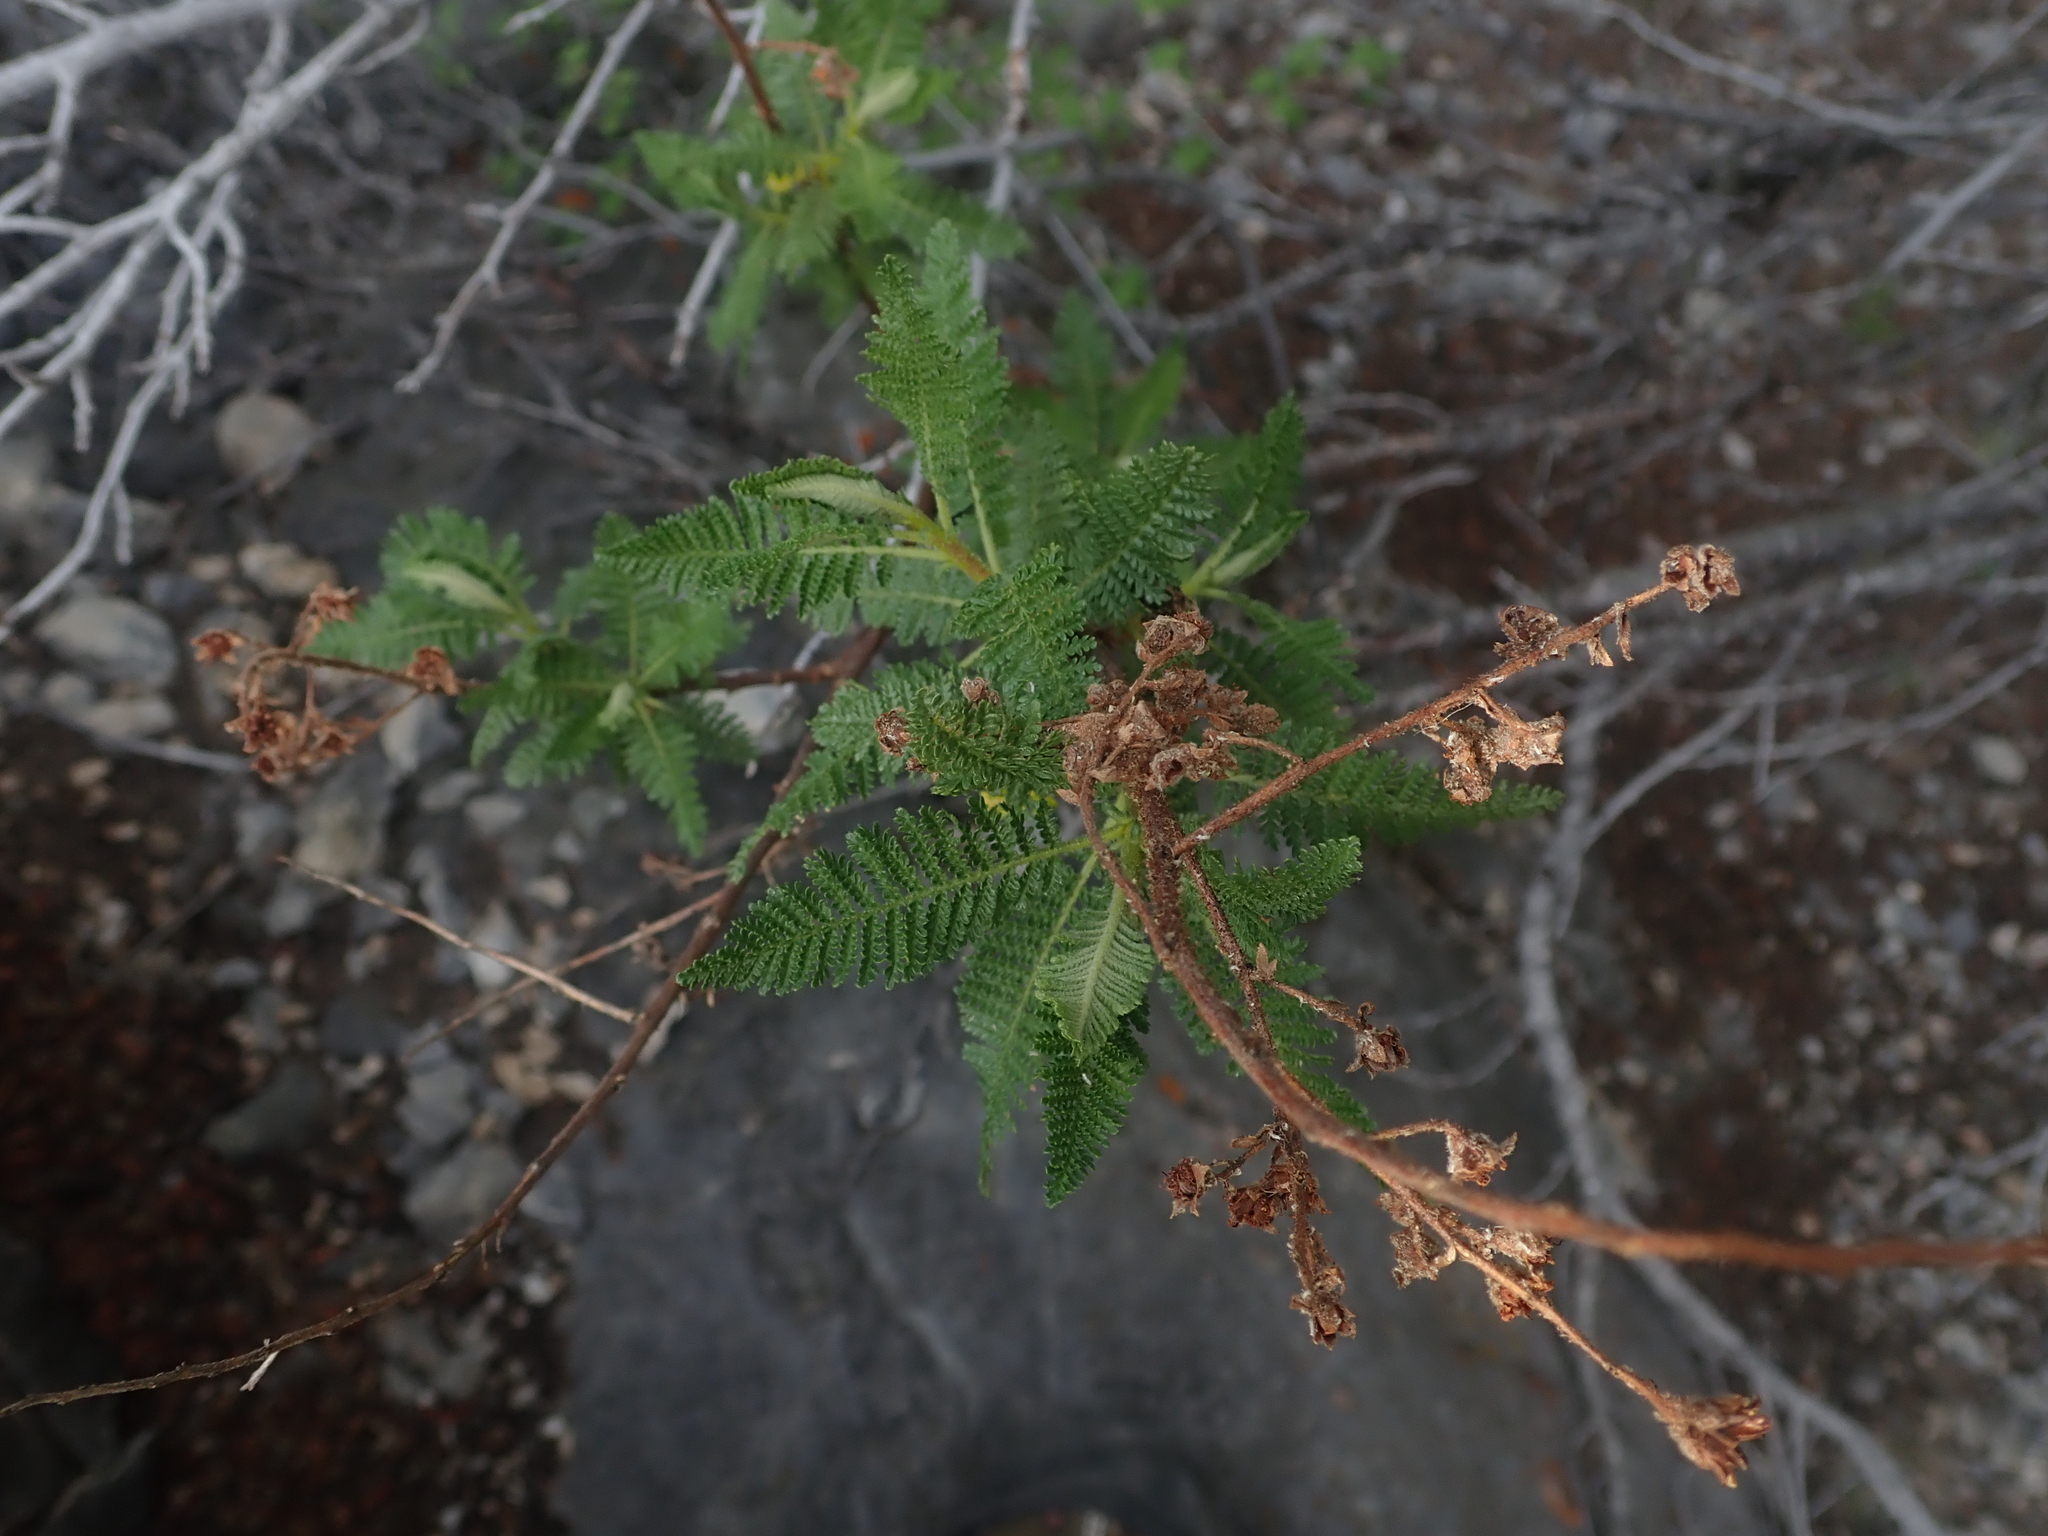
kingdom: Plantae
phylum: Tracheophyta
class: Magnoliopsida
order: Rosales
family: Rosaceae
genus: Chamaebatiaria
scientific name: Chamaebatiaria millefolium
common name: Fernbush
